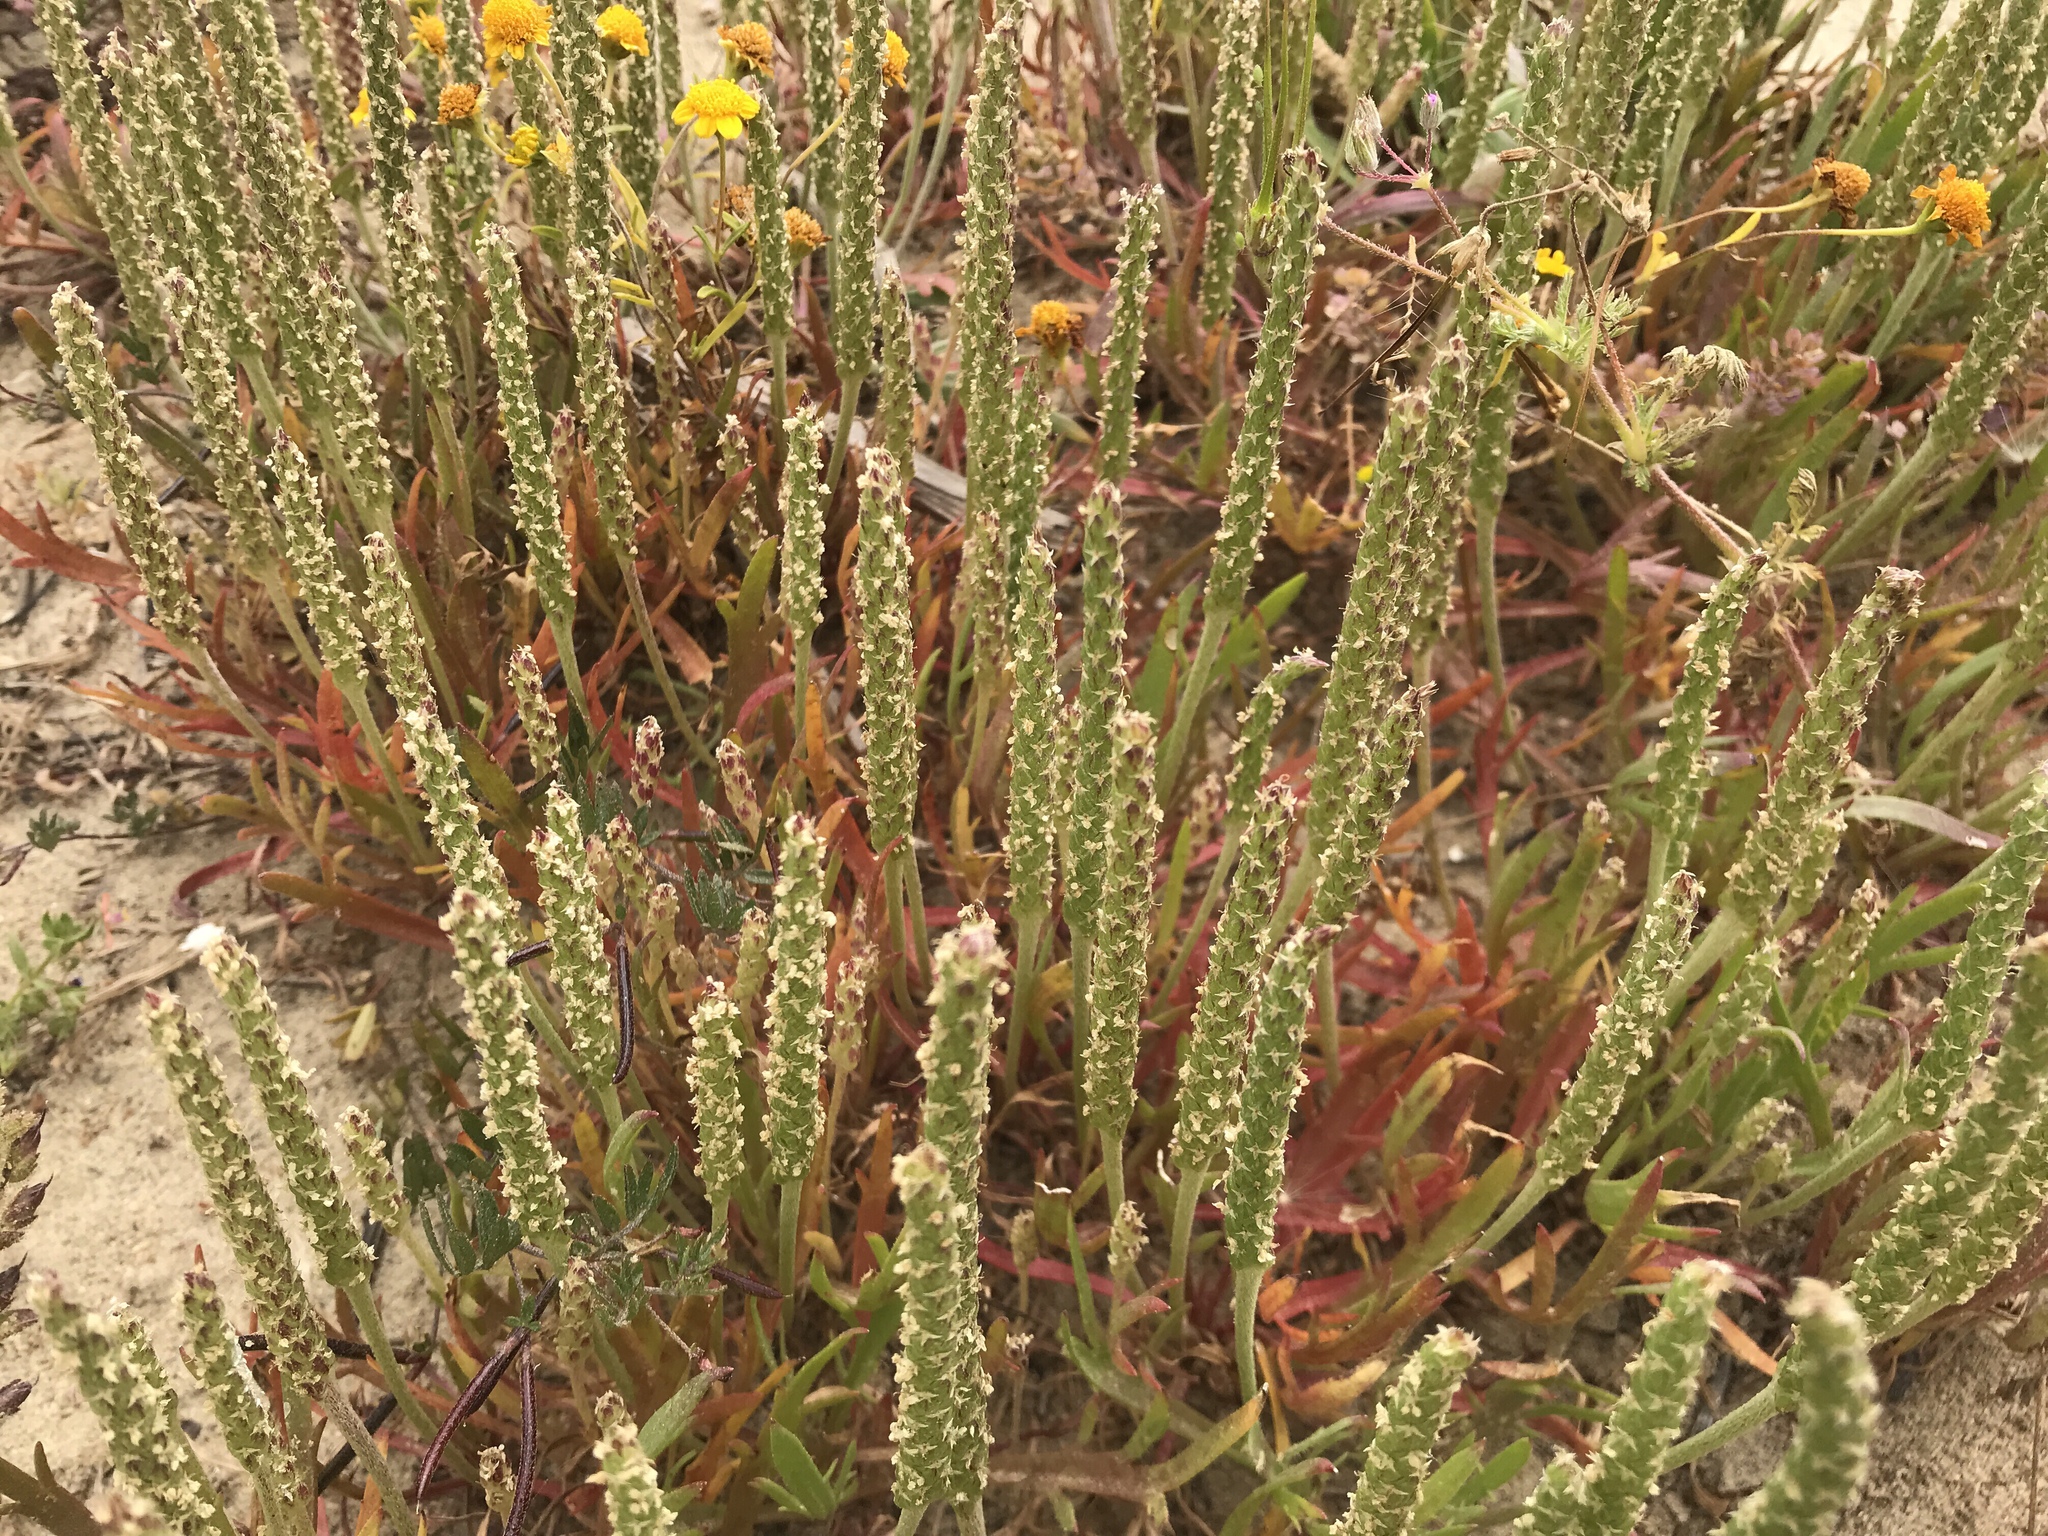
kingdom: Plantae
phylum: Tracheophyta
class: Magnoliopsida
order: Lamiales
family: Plantaginaceae
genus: Plantago
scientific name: Plantago coronopus
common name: Buck's-horn plantain
